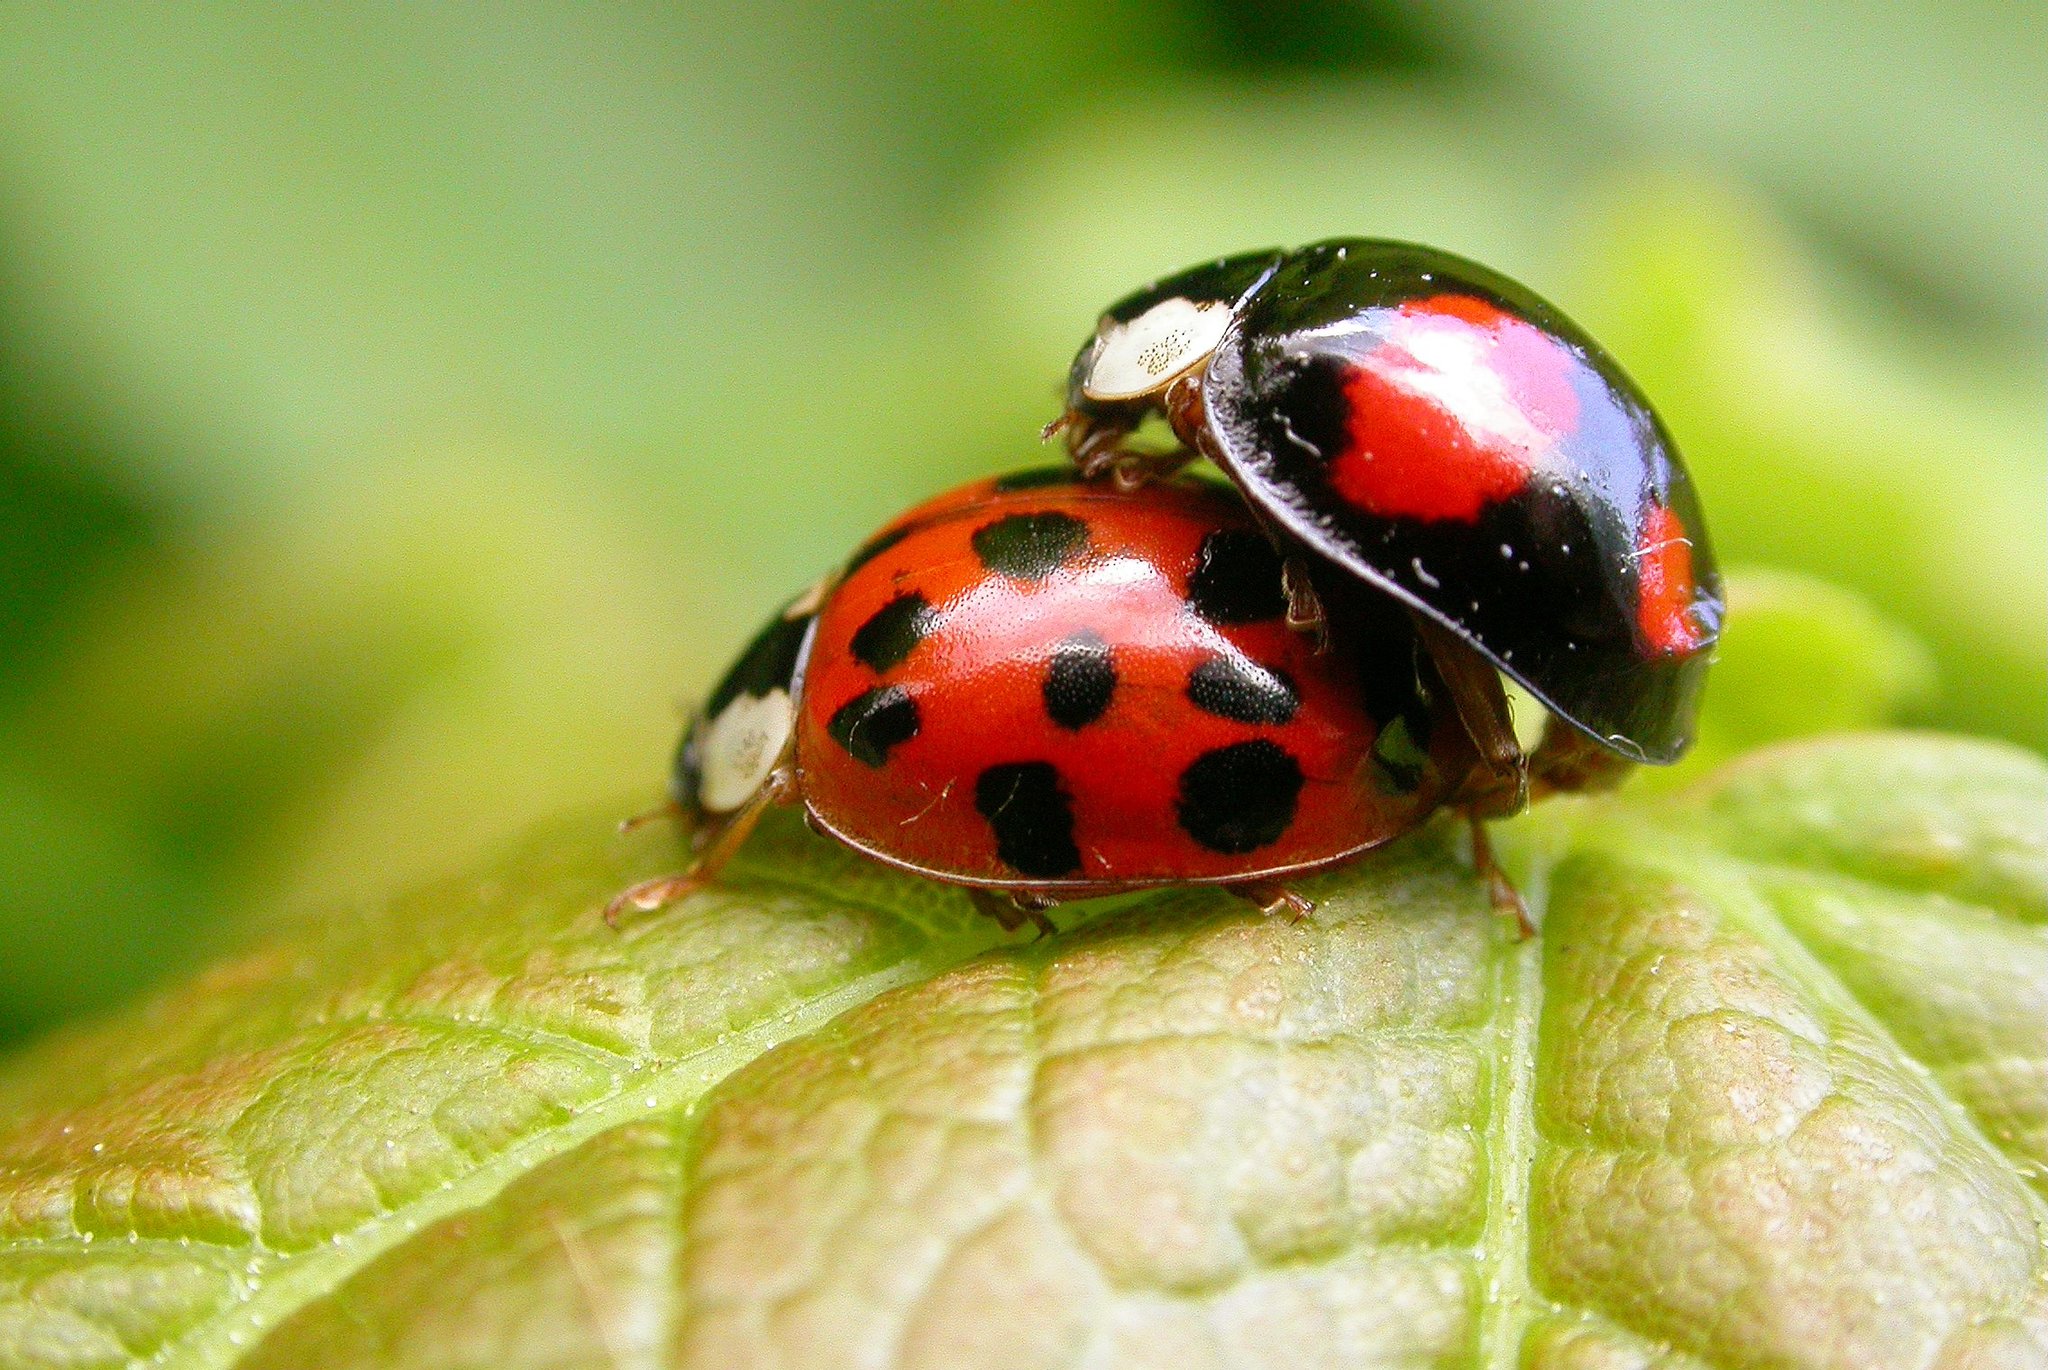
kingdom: Animalia
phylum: Arthropoda
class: Insecta
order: Coleoptera
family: Coccinellidae
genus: Harmonia
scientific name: Harmonia axyridis
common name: Harlequin ladybird
